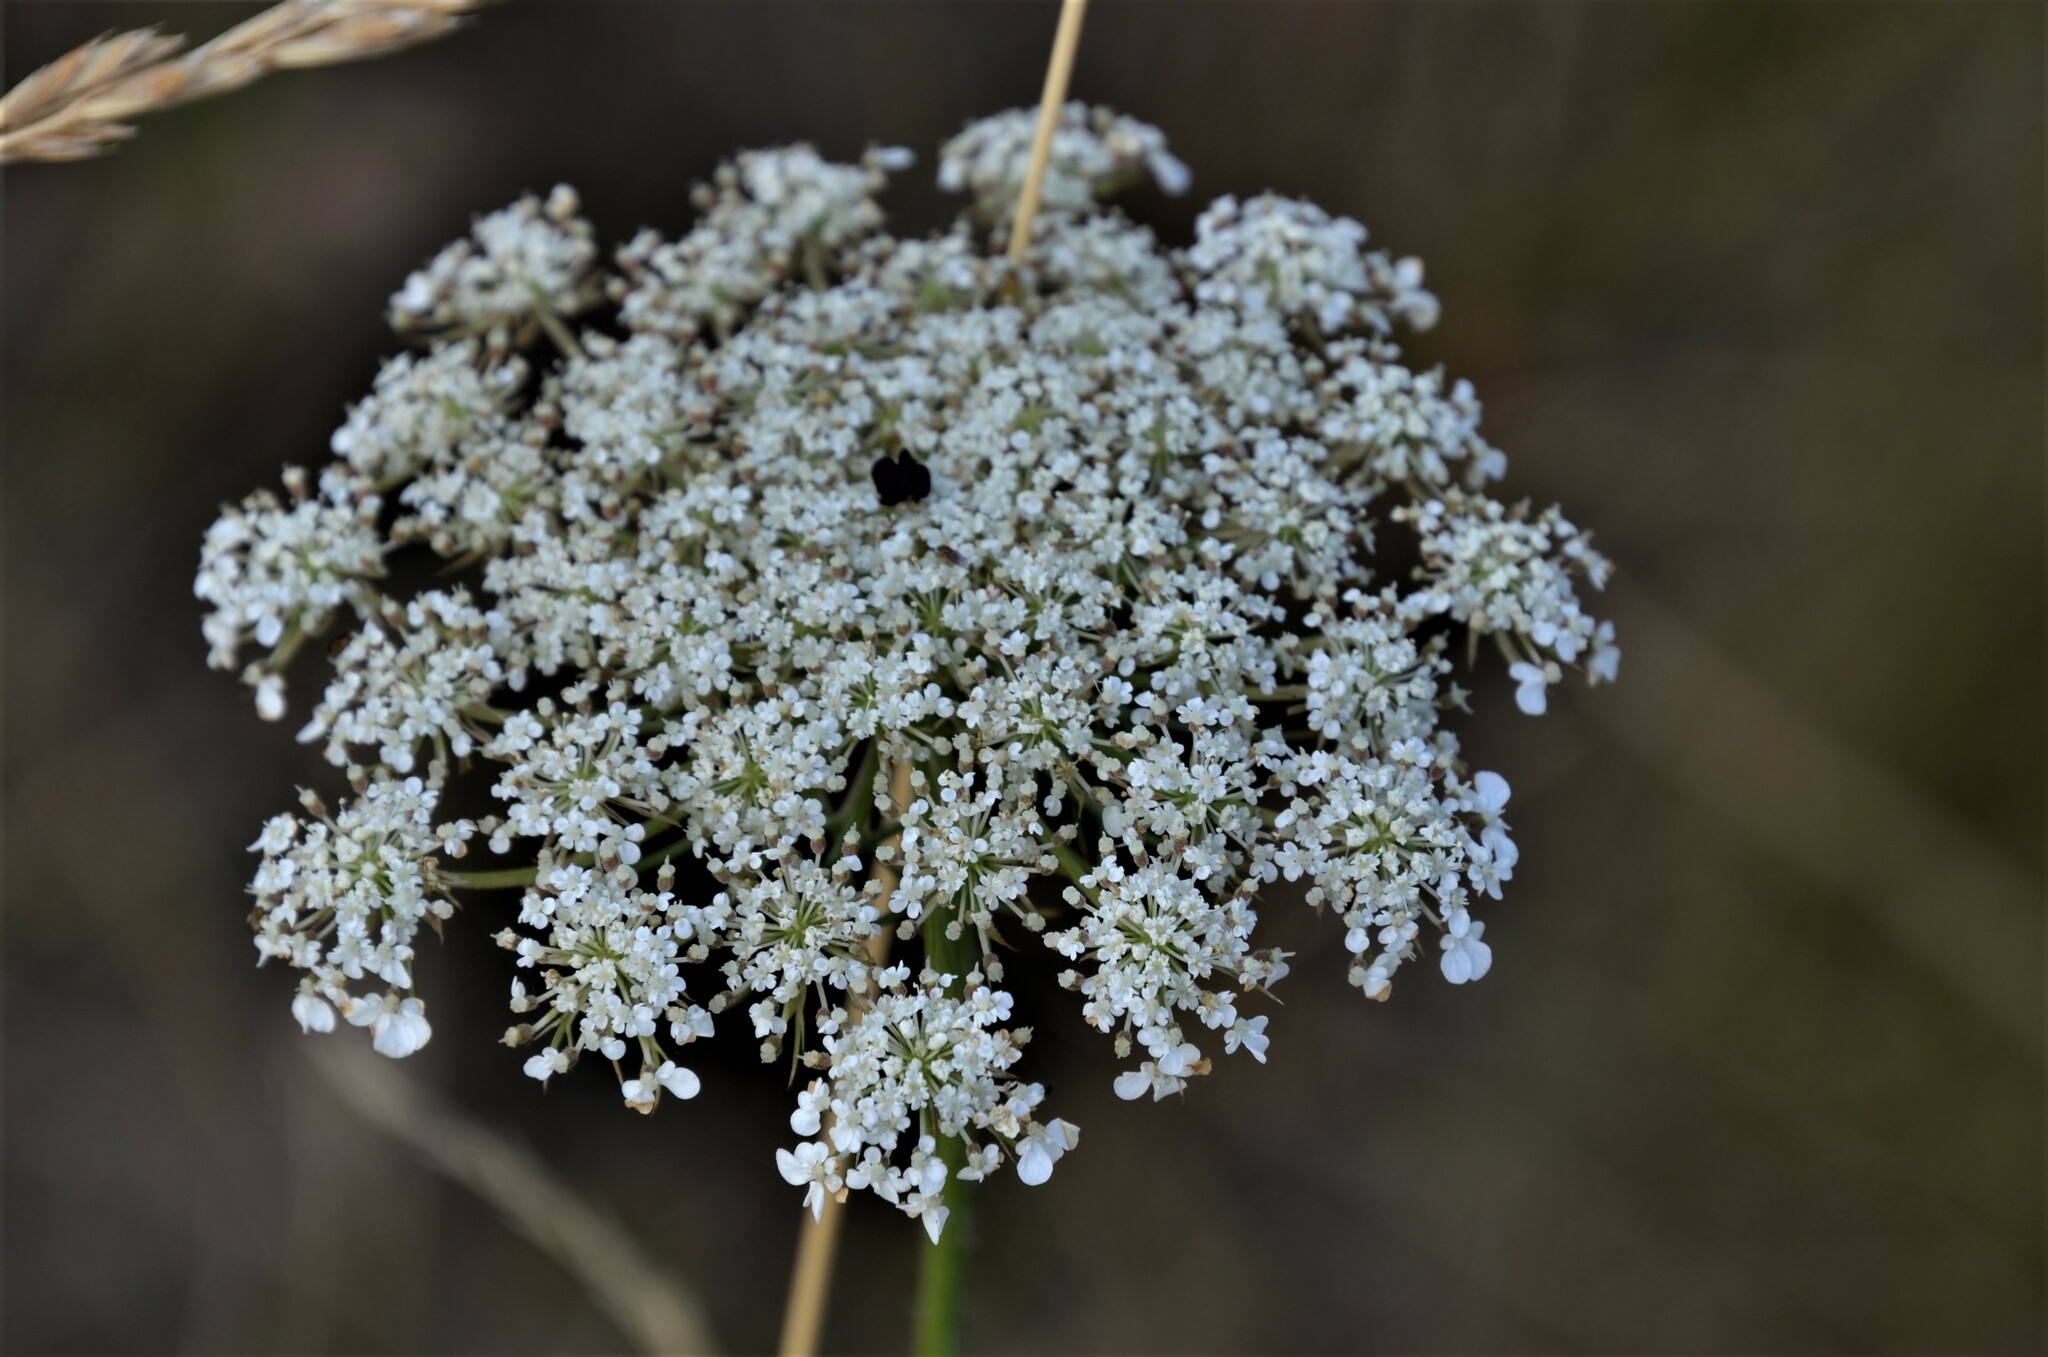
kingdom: Plantae
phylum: Tracheophyta
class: Magnoliopsida
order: Apiales
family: Apiaceae
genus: Daucus
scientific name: Daucus carota
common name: Wild carrot
